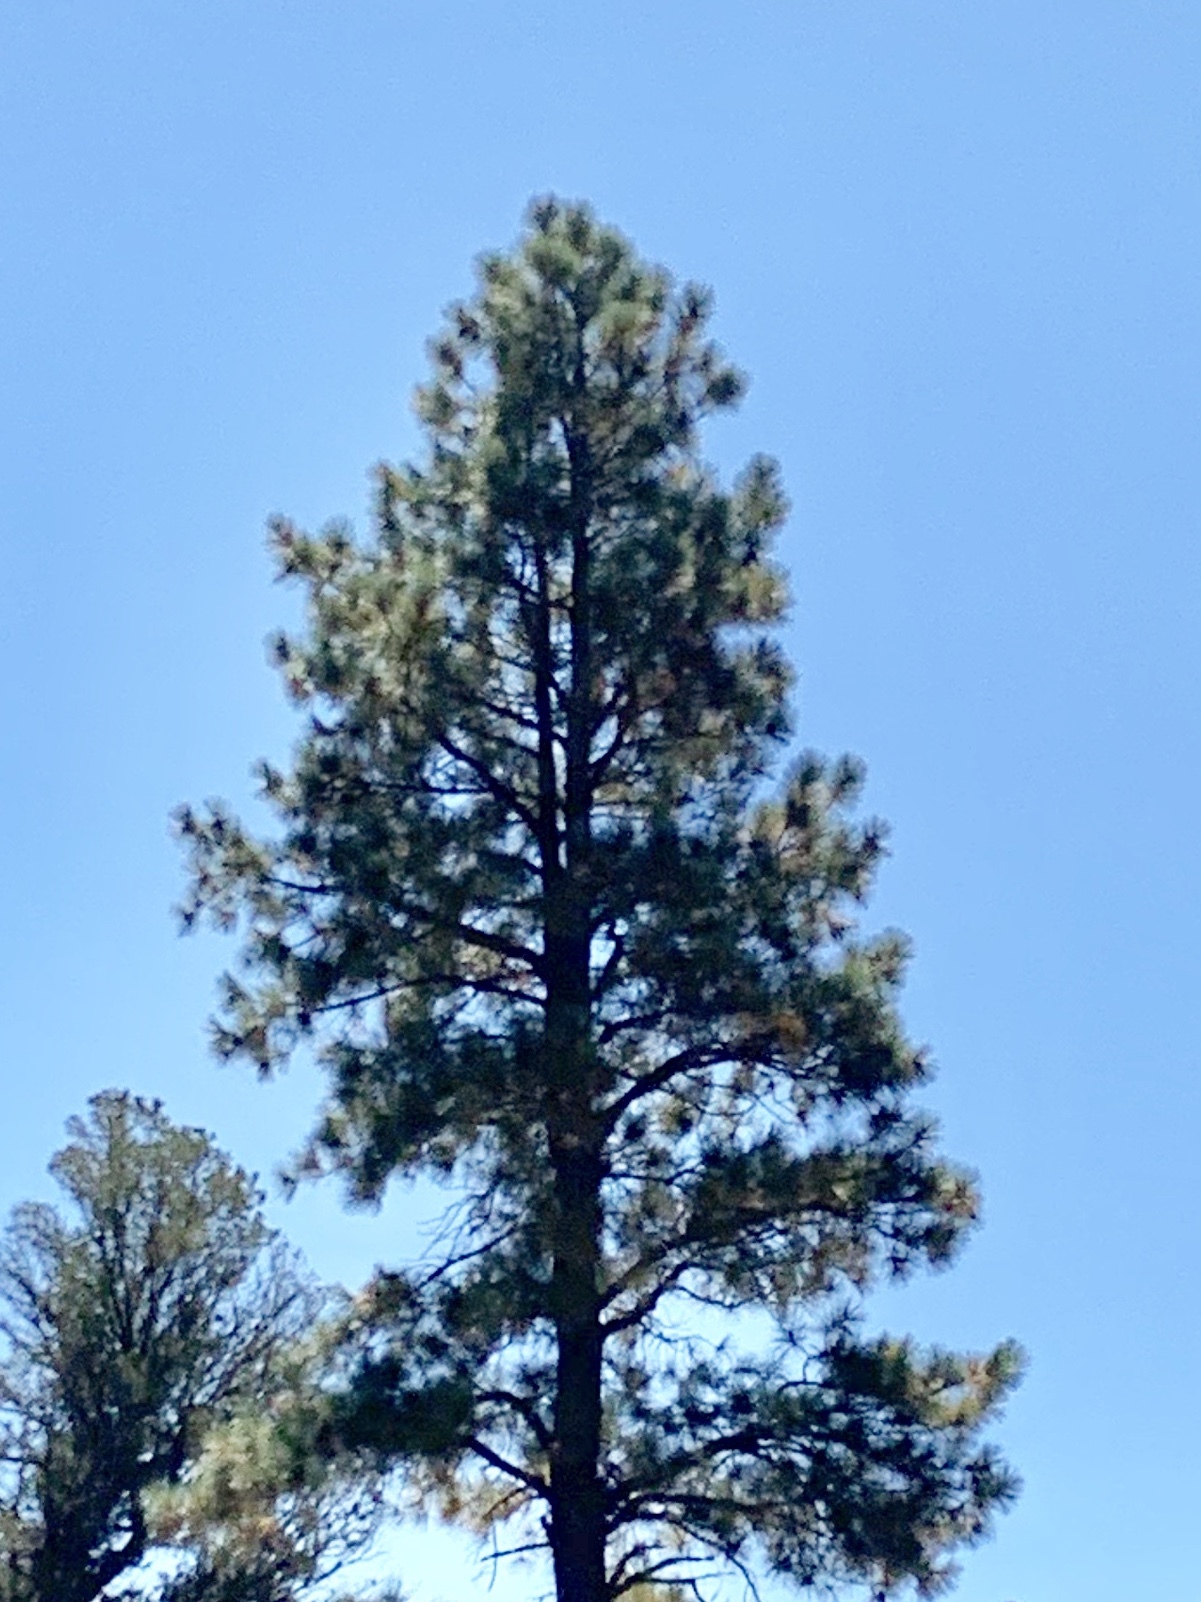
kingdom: Plantae
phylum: Tracheophyta
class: Pinopsida
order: Pinales
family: Pinaceae
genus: Pinus
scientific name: Pinus ponderosa
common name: Western yellow-pine
